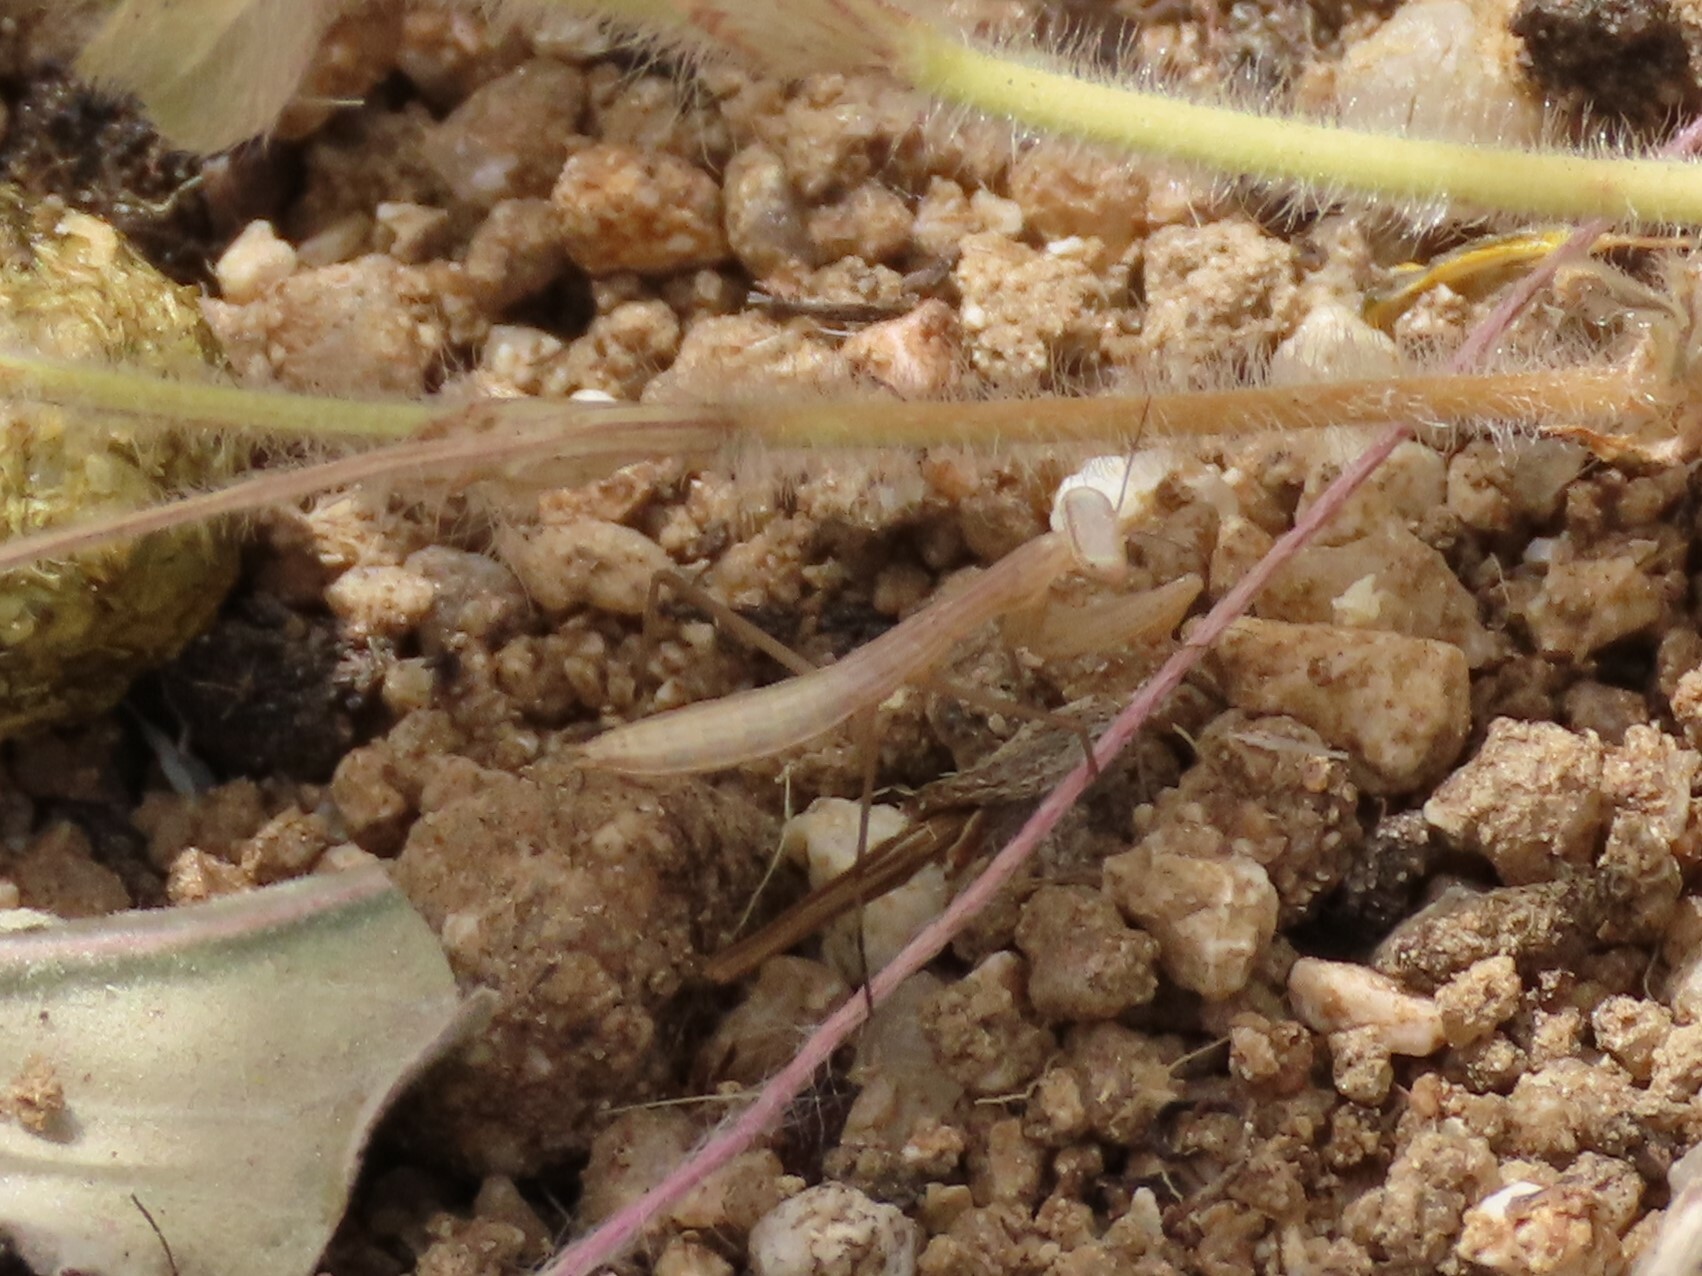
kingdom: Animalia
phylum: Arthropoda
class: Insecta
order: Mantodea
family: Mantidae
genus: Mantis
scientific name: Mantis religiosa
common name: Praying mantis
